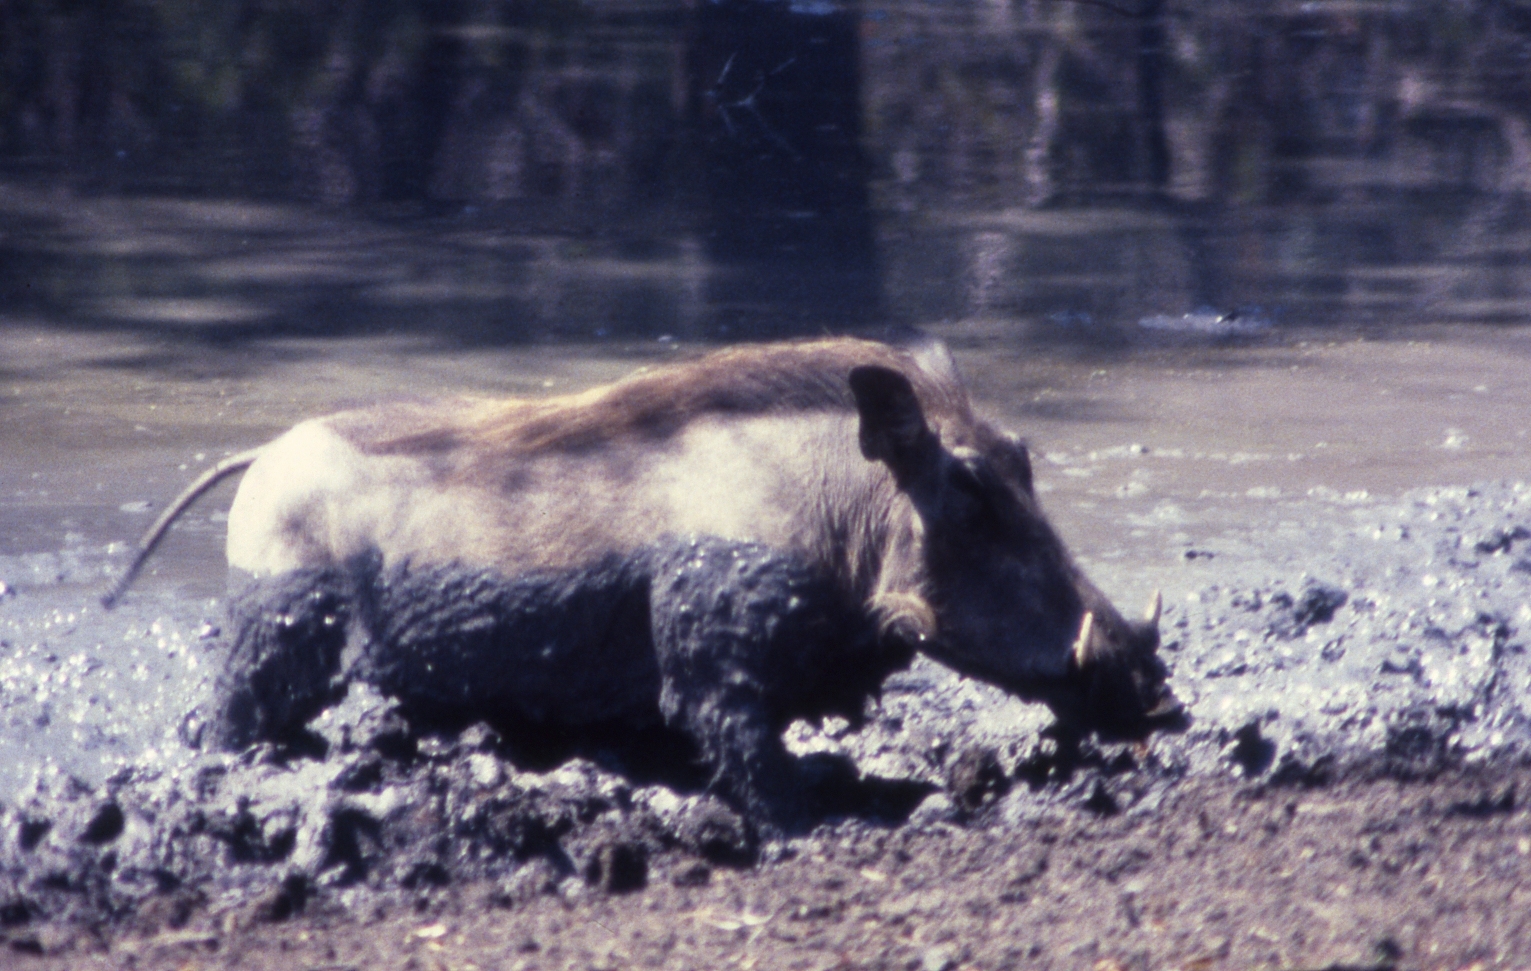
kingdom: Animalia
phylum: Chordata
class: Mammalia
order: Artiodactyla
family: Suidae
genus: Phacochoerus
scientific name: Phacochoerus africanus
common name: Common warthog
